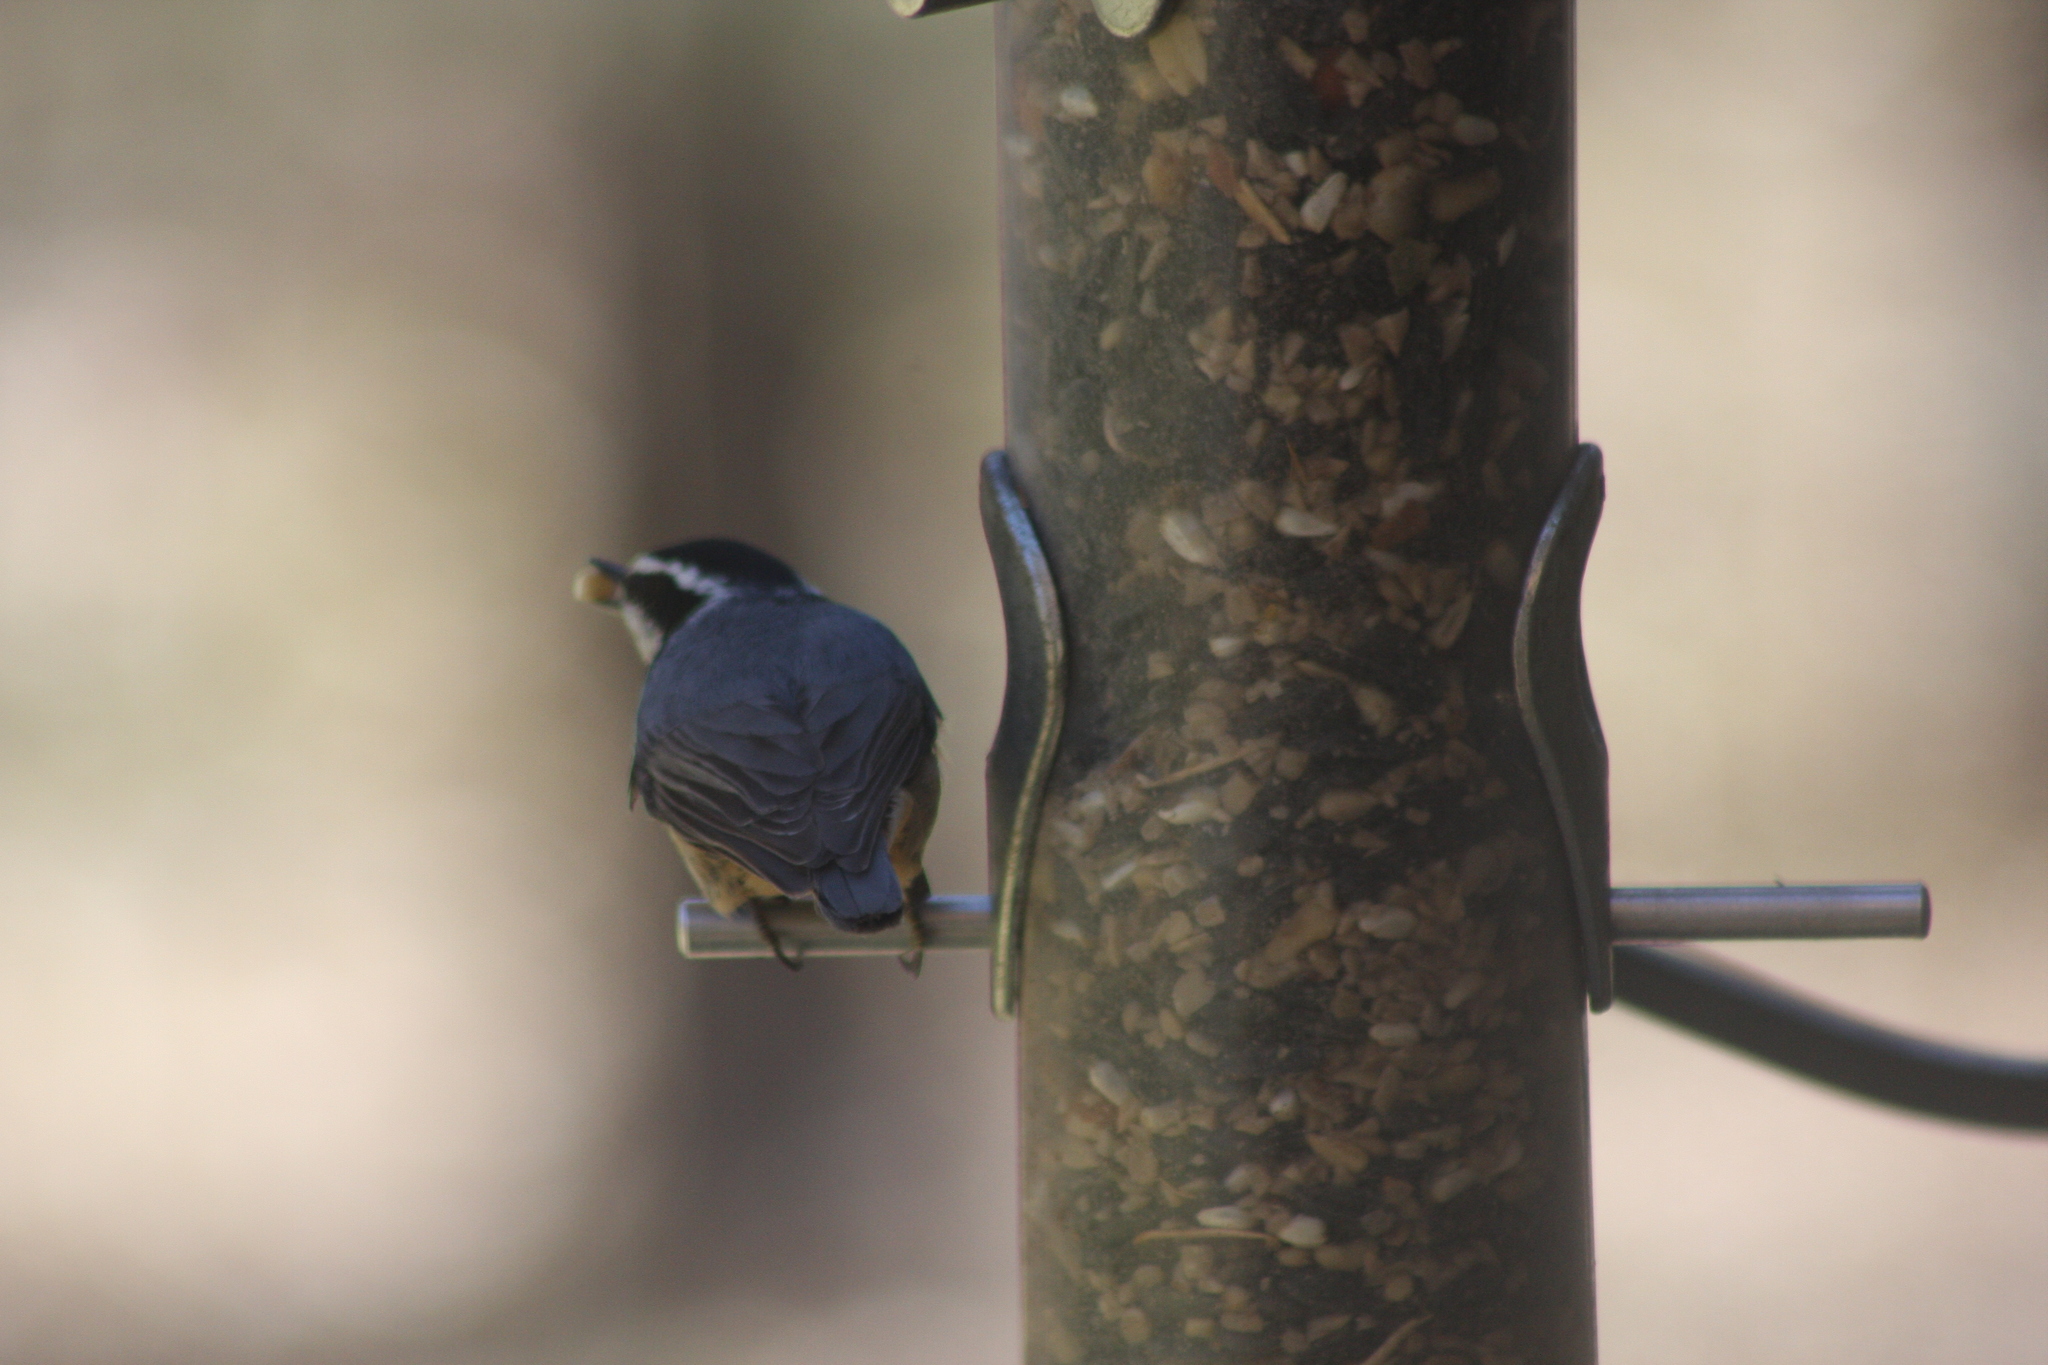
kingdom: Animalia
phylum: Chordata
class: Aves
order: Passeriformes
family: Sittidae
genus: Sitta
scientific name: Sitta canadensis
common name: Red-breasted nuthatch
